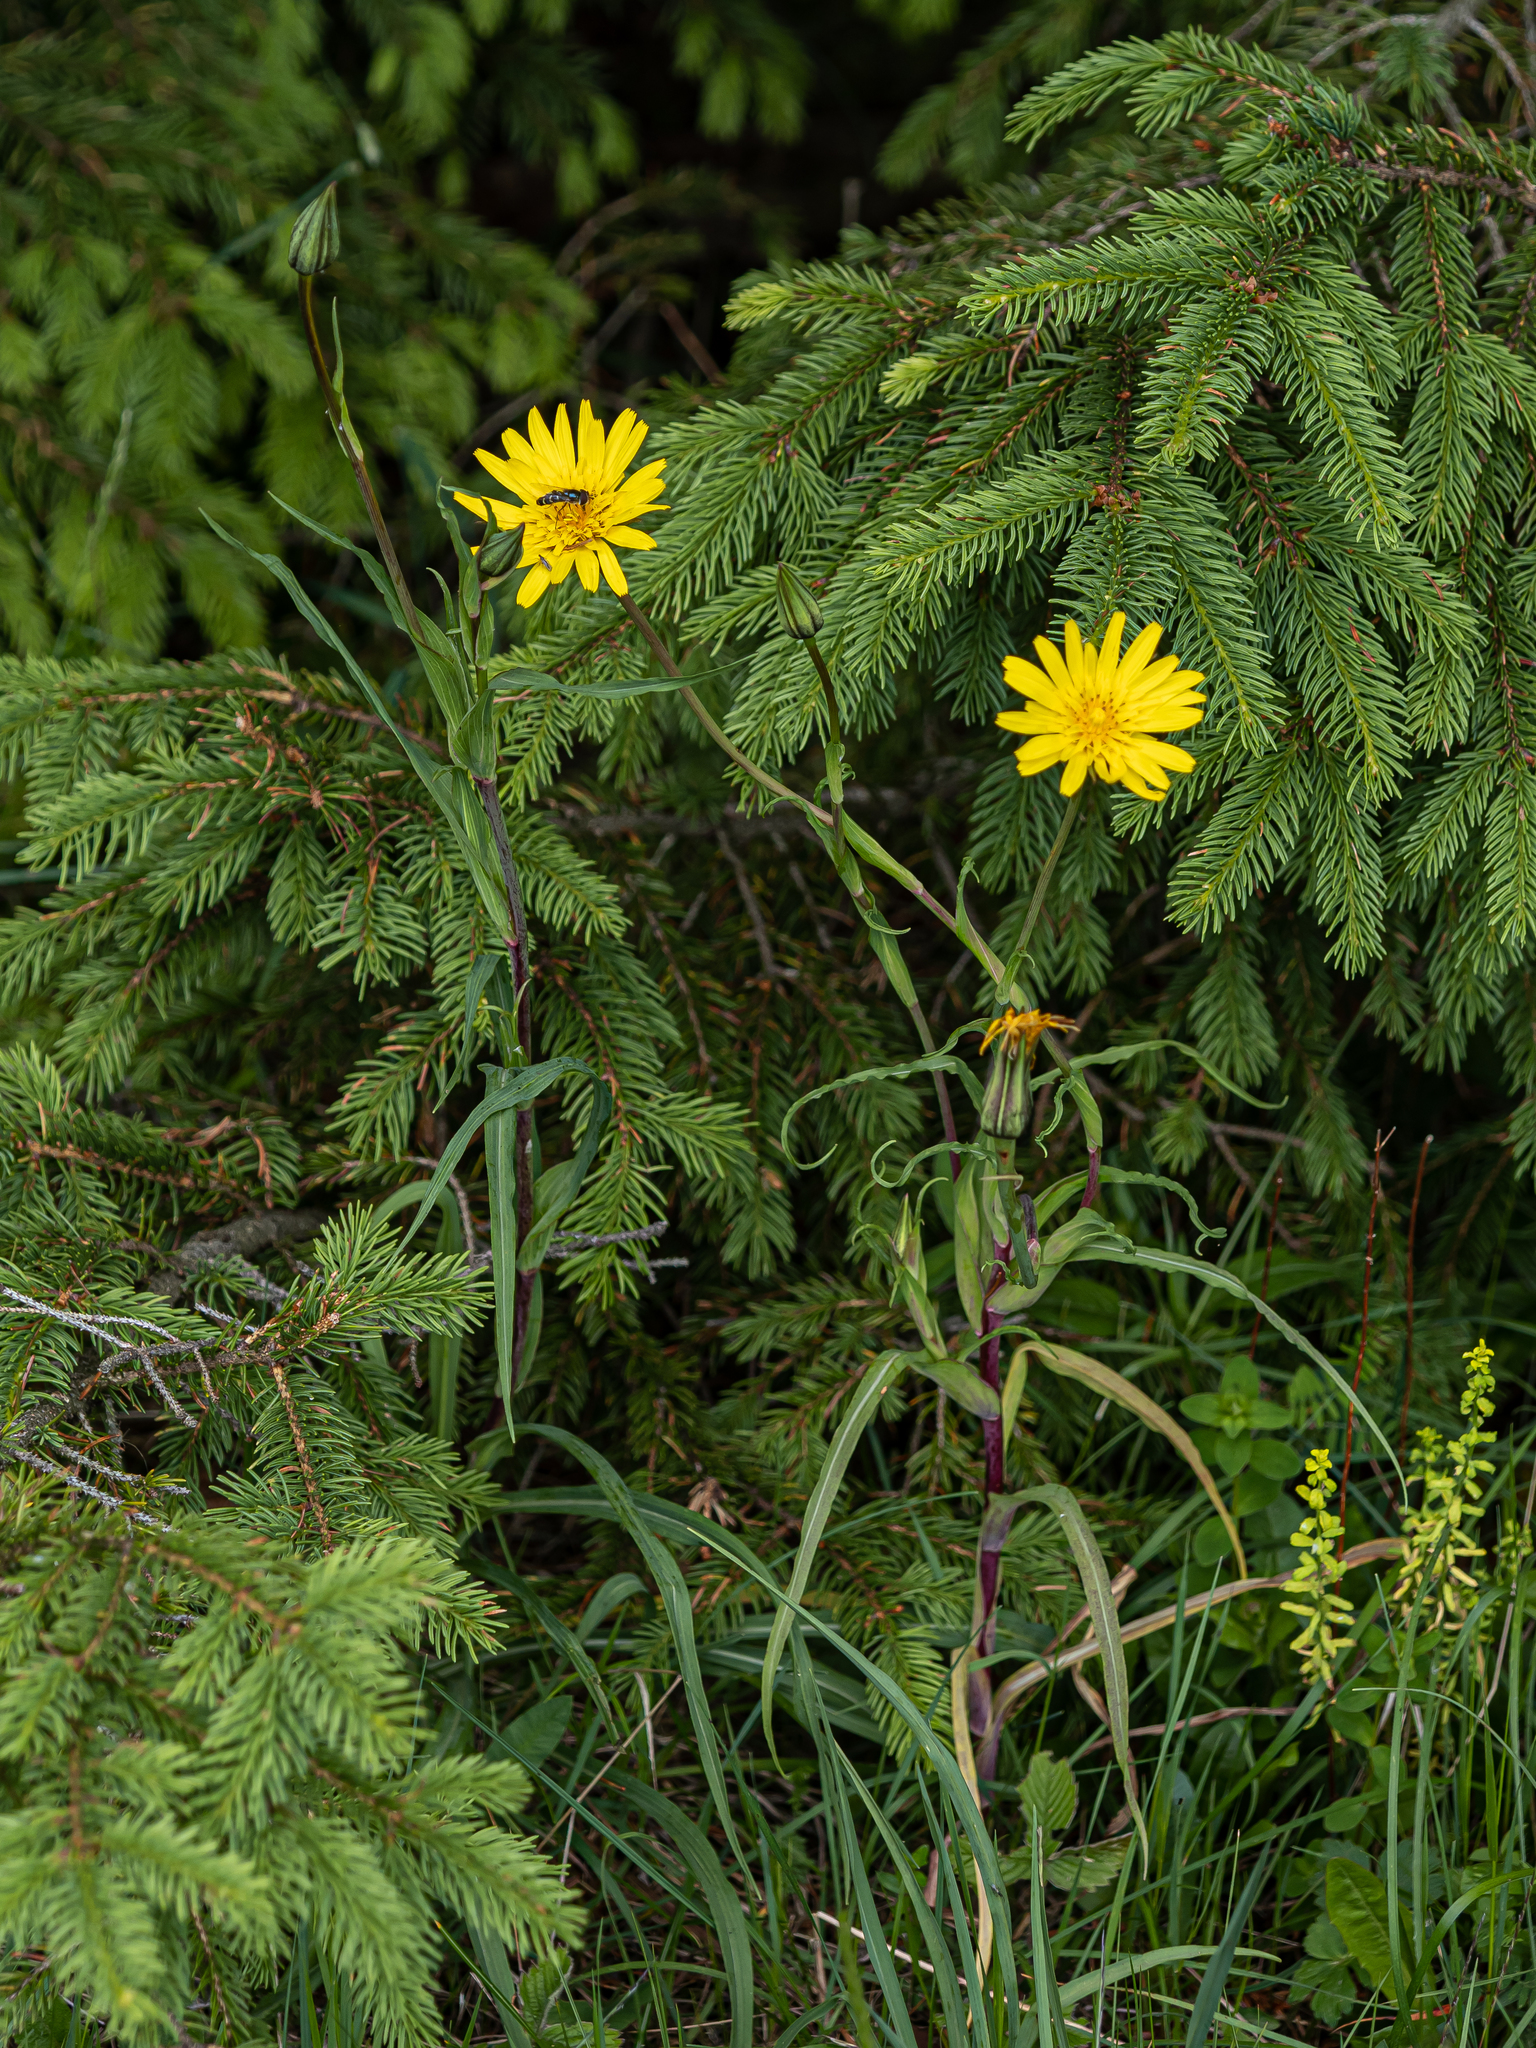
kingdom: Plantae
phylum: Tracheophyta
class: Magnoliopsida
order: Asterales
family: Asteraceae
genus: Tragopogon
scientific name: Tragopogon orientalis
